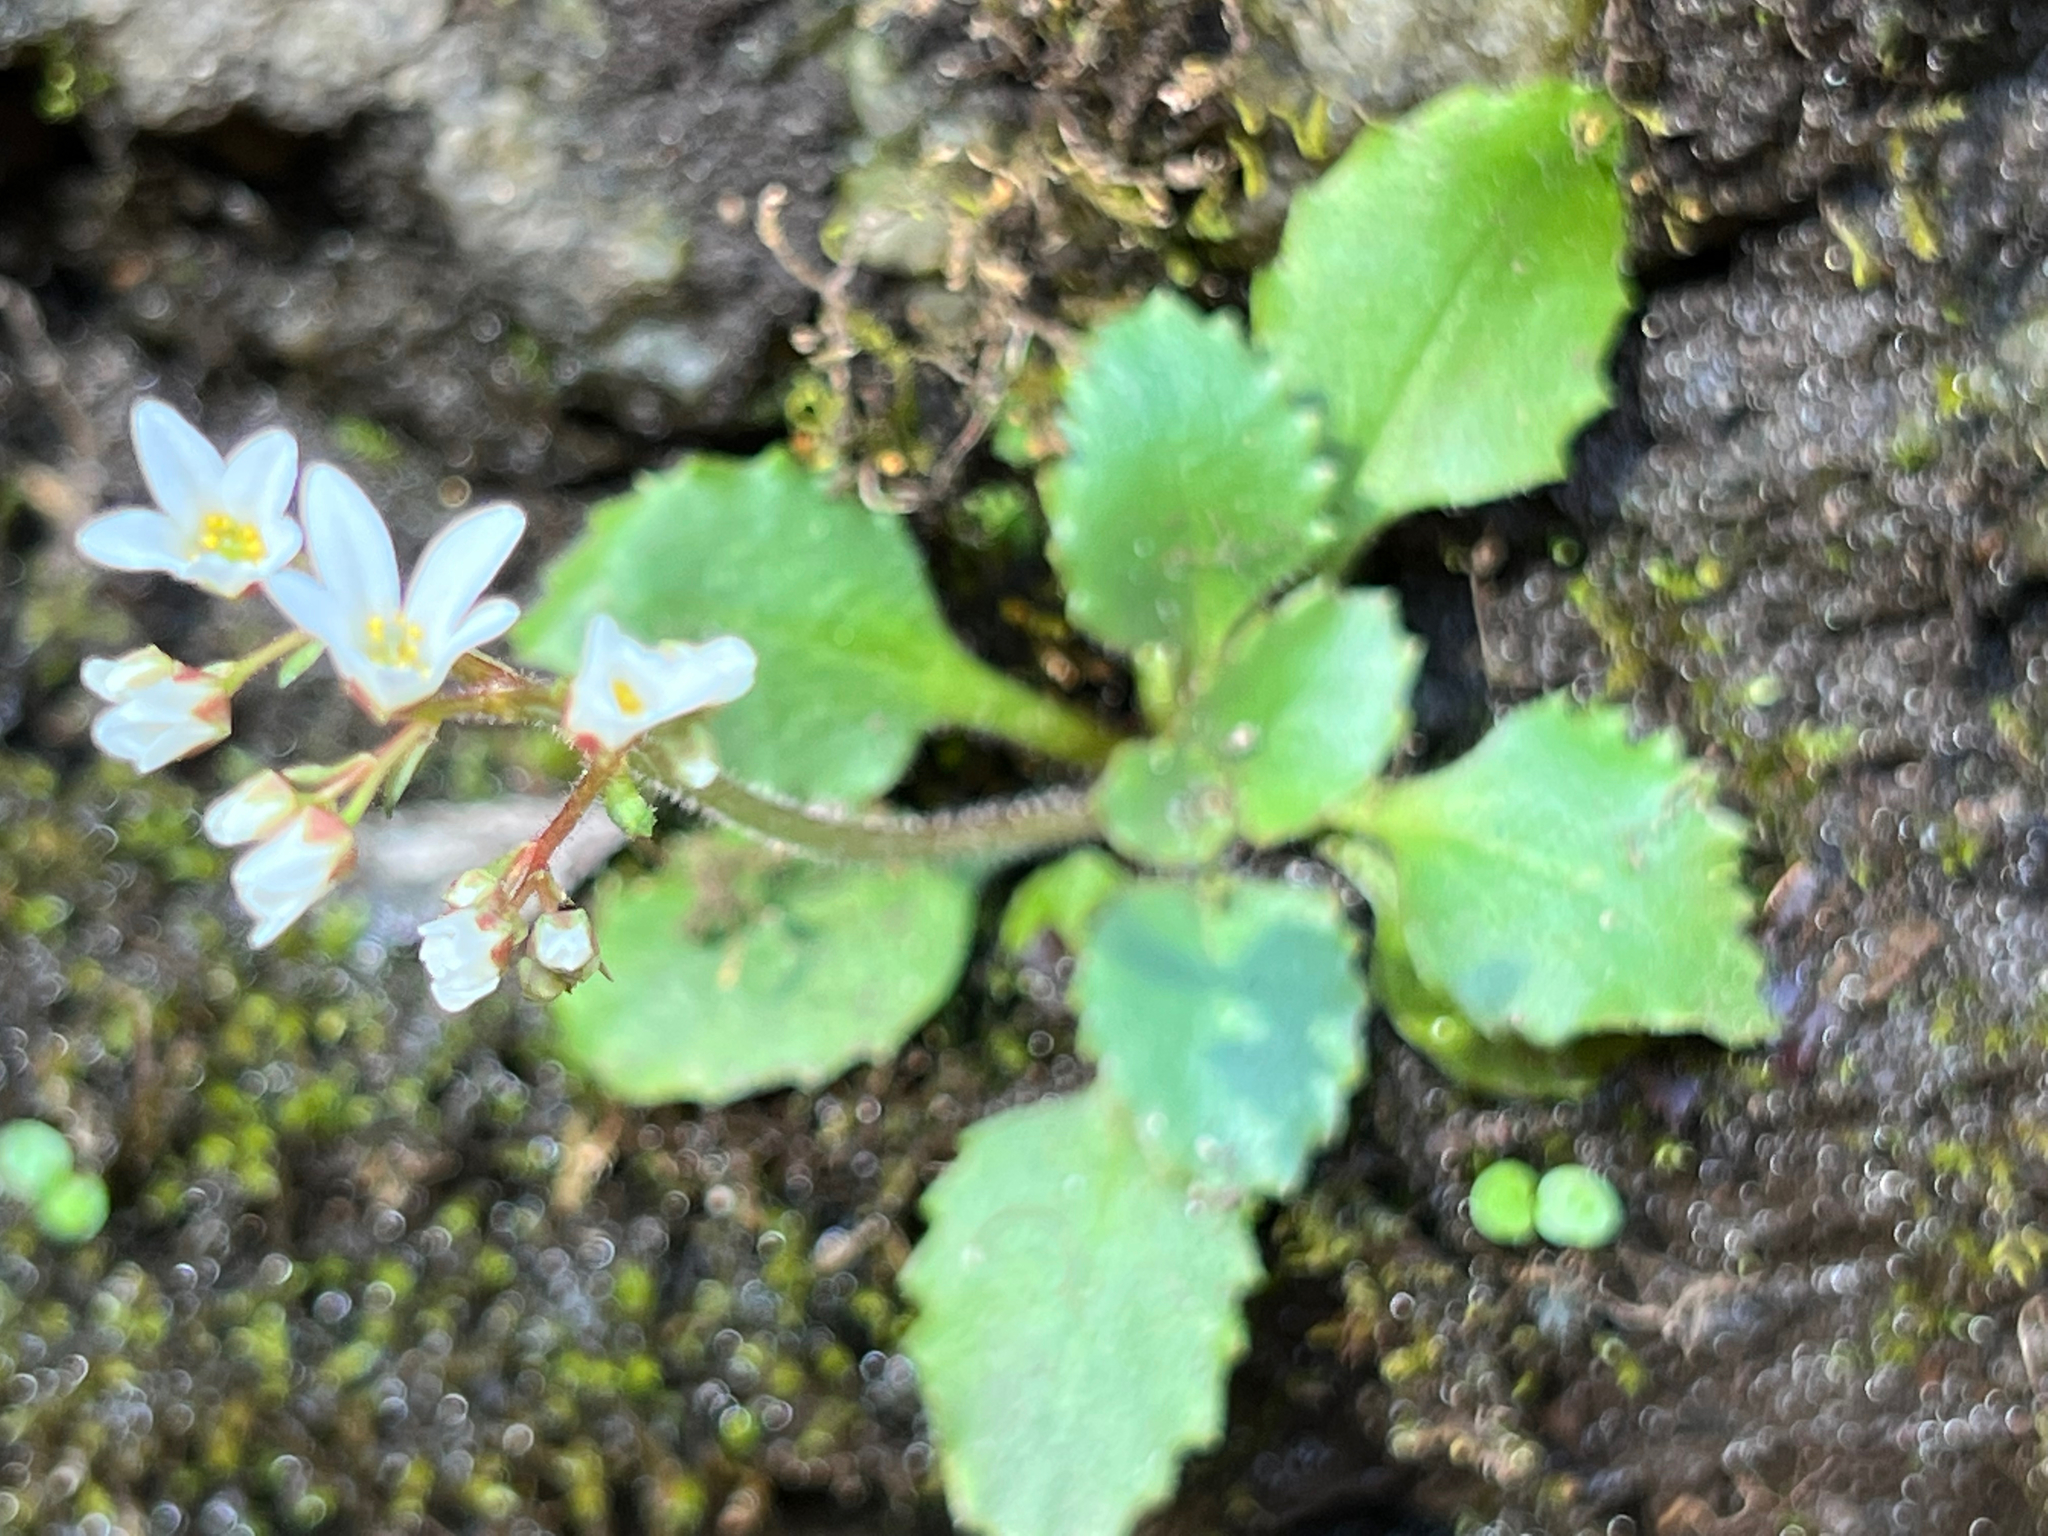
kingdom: Plantae
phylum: Tracheophyta
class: Magnoliopsida
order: Saxifragales
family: Saxifragaceae
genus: Micranthes
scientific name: Micranthes virginiensis
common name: Early saxifrage
